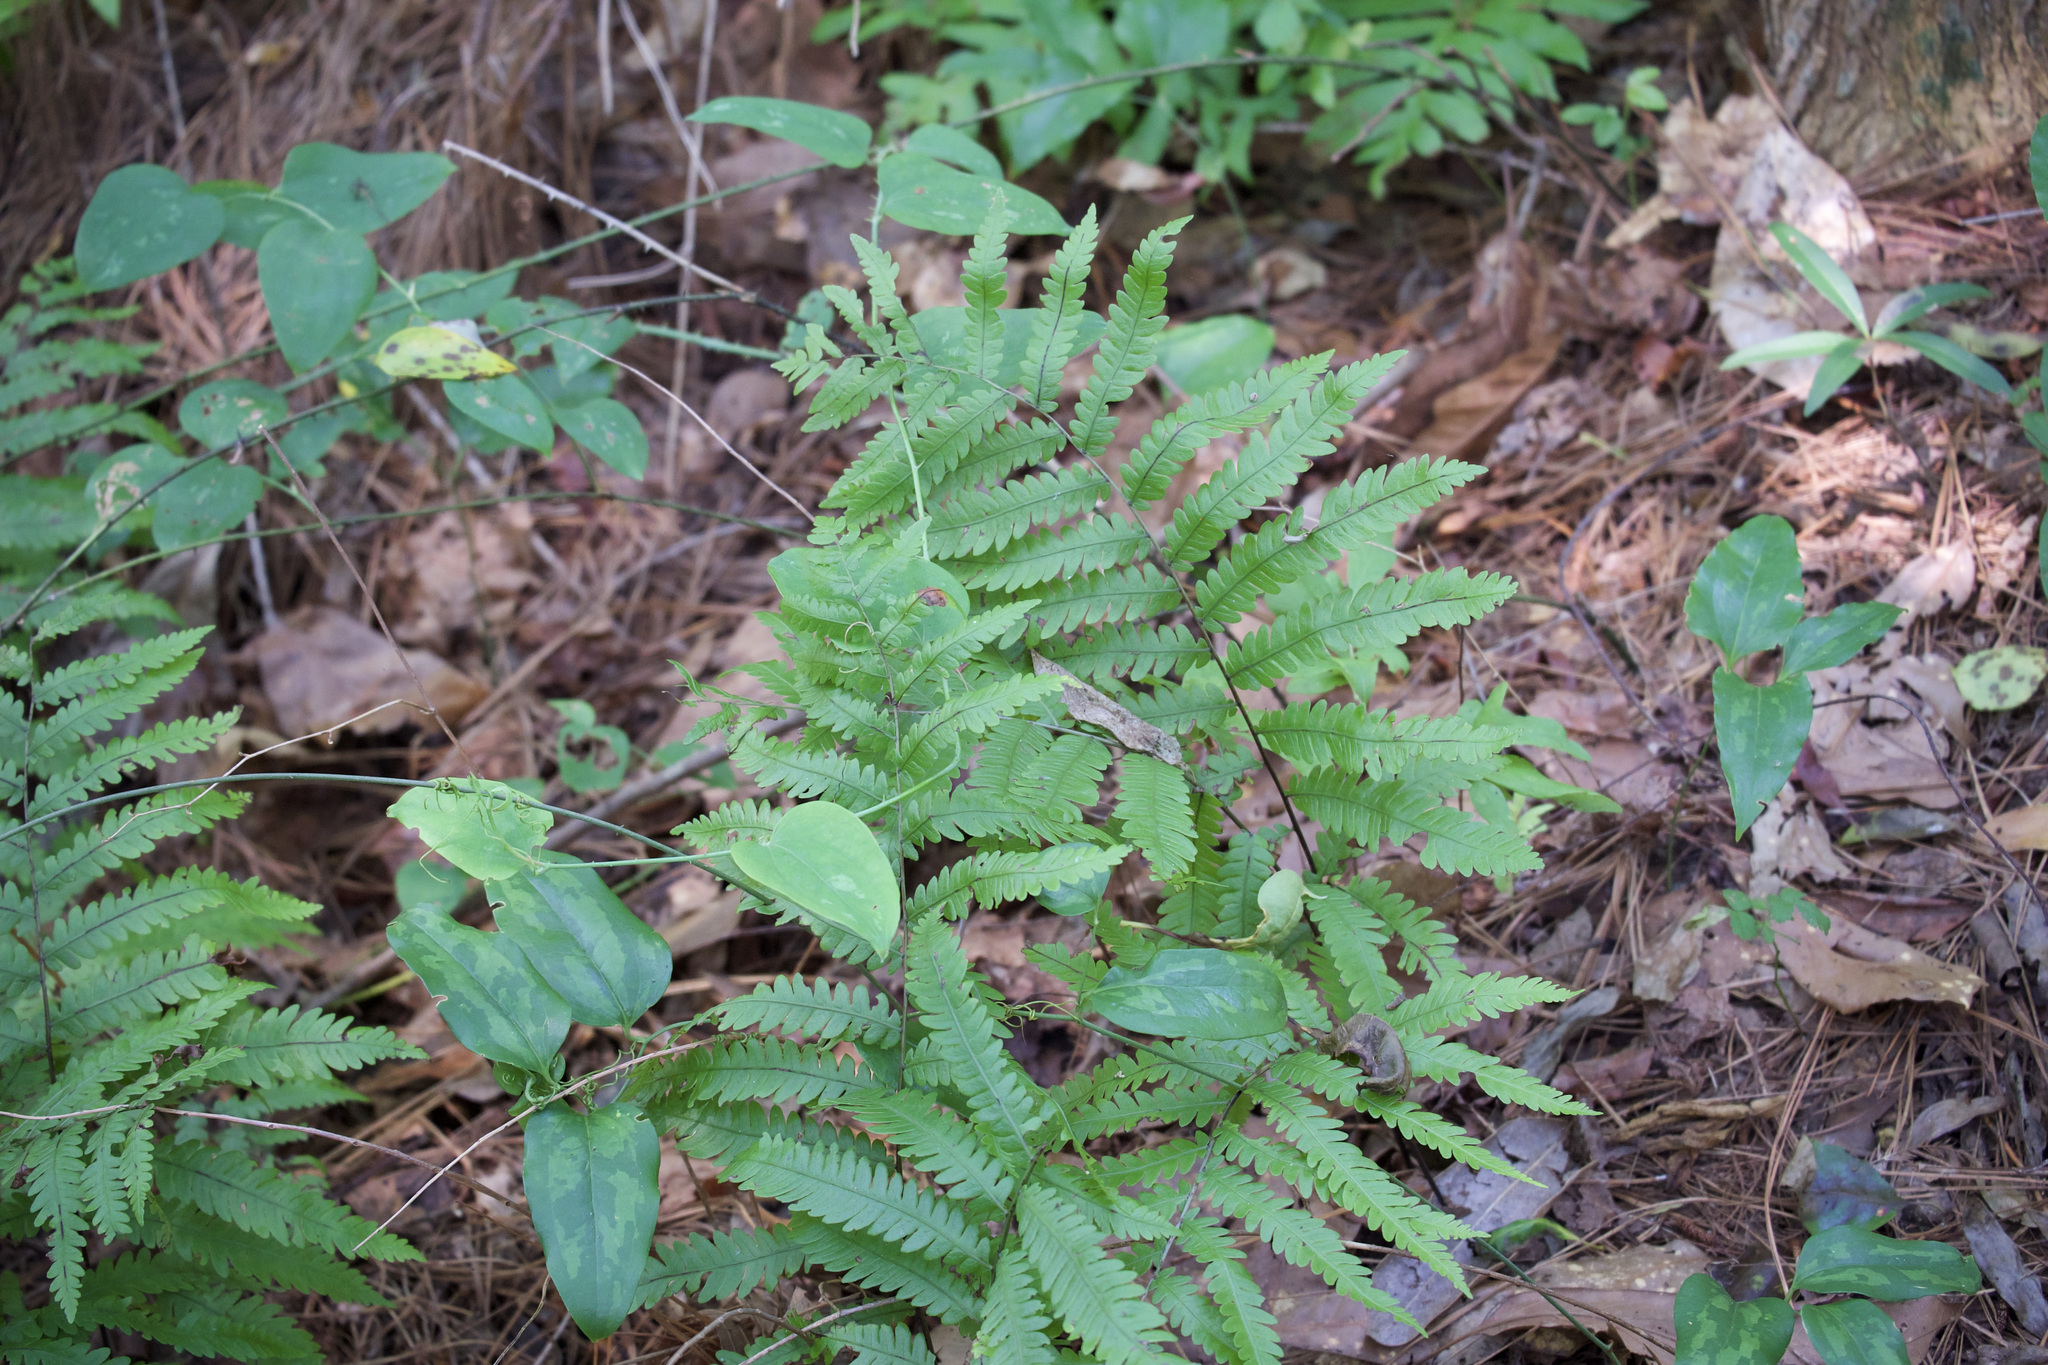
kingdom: Plantae
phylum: Tracheophyta
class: Polypodiopsida
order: Polypodiales
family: Blechnaceae
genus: Anchistea
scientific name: Anchistea virginica
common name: Virginia chain fern
